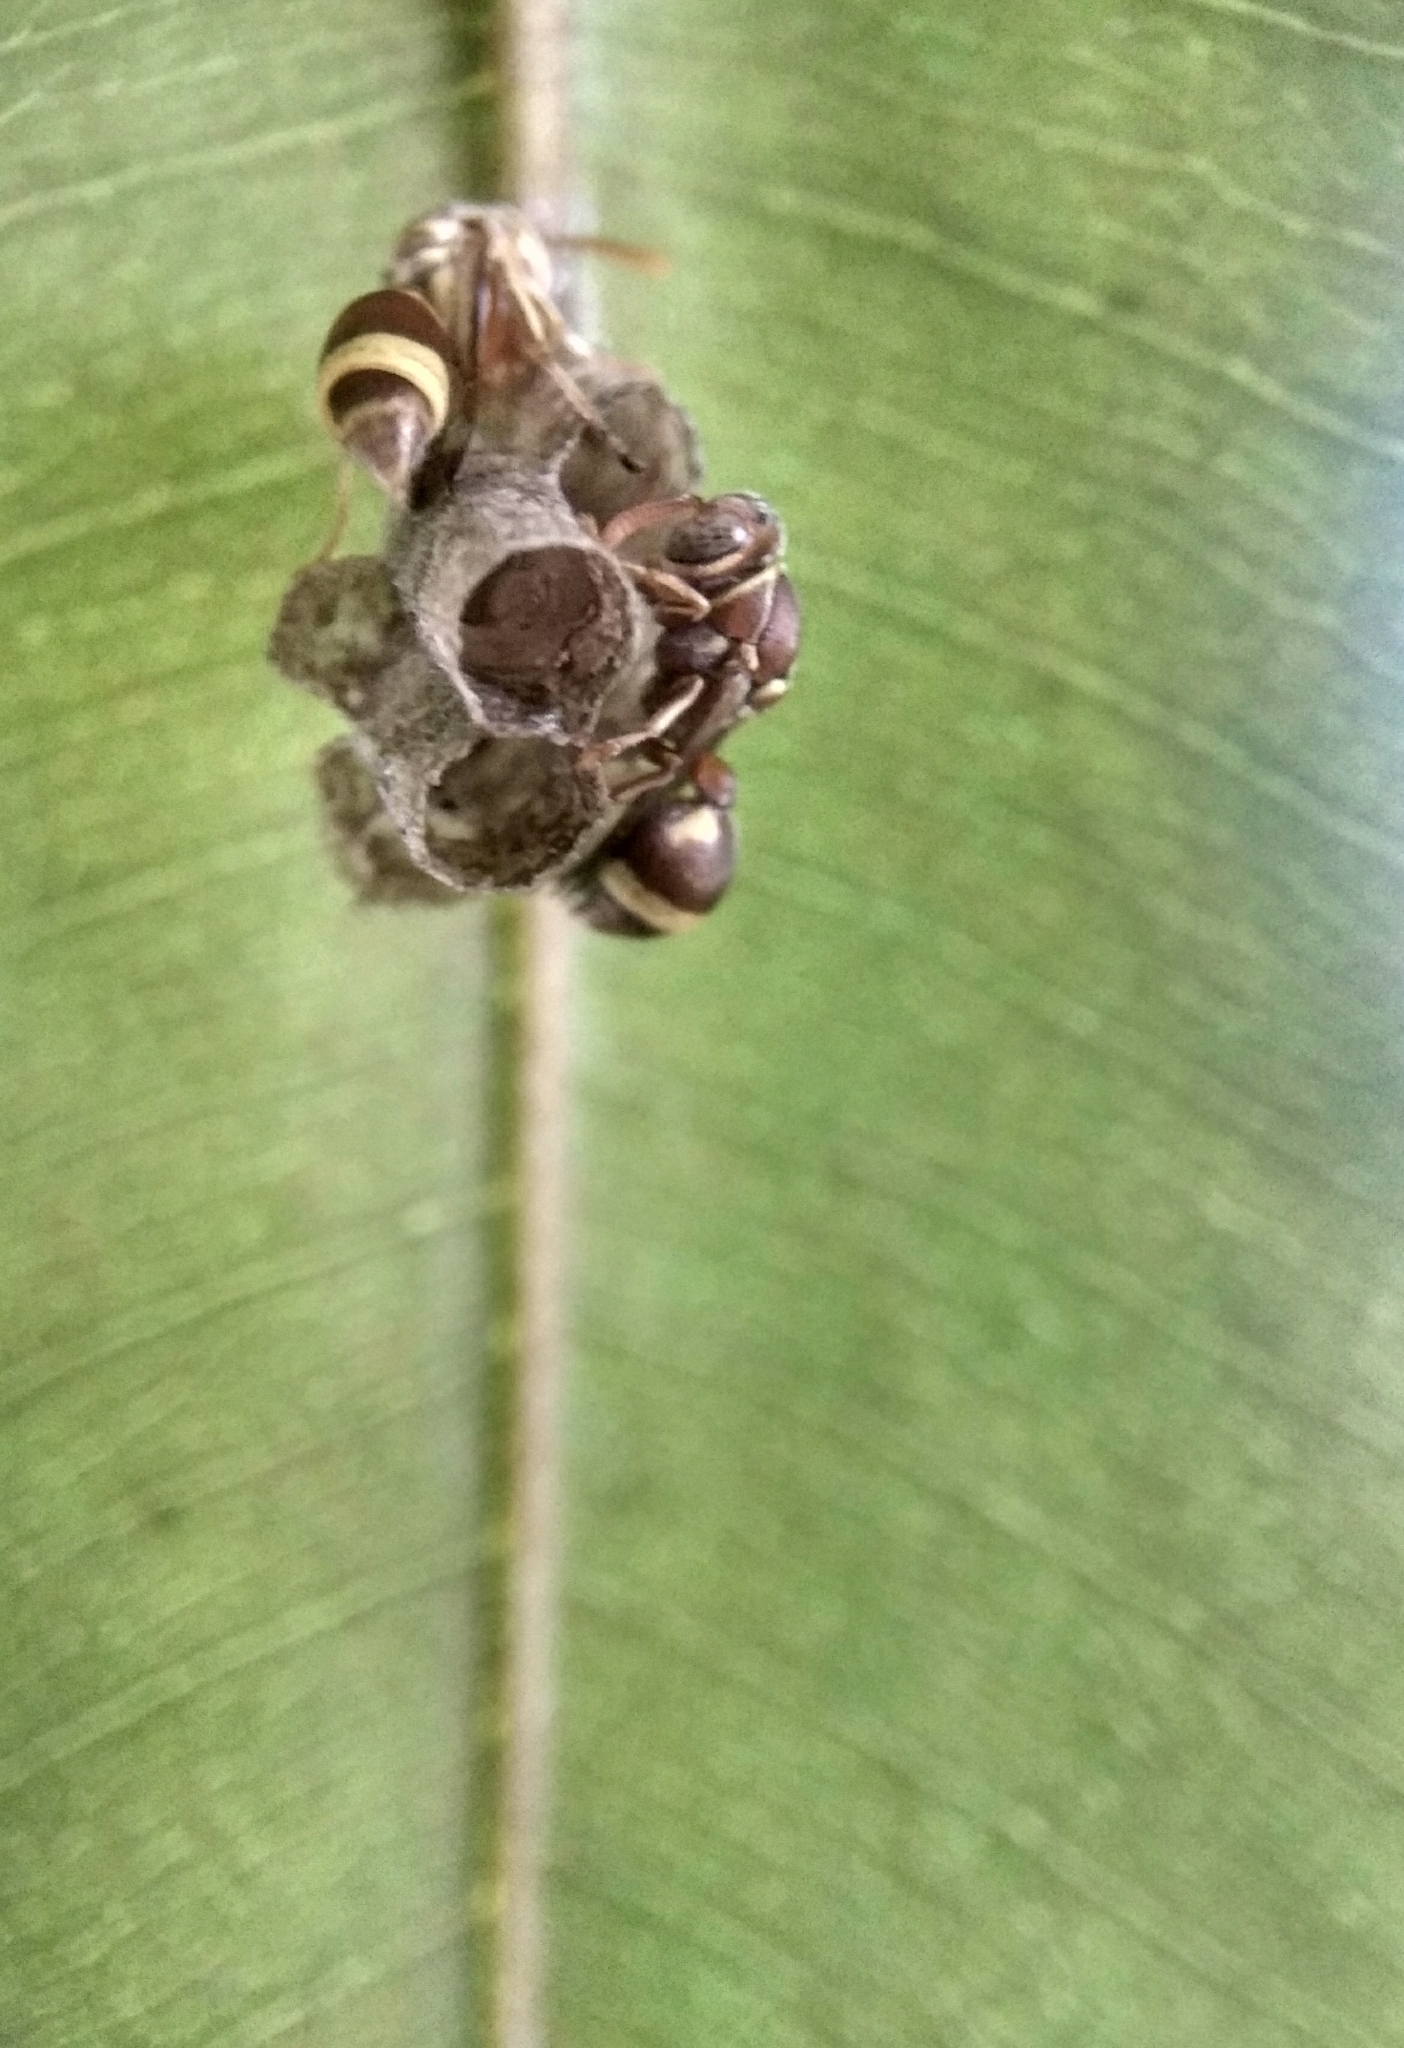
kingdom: Animalia
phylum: Arthropoda
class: Insecta
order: Hymenoptera
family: Vespidae
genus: Ropalidia
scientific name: Ropalidia variegata
